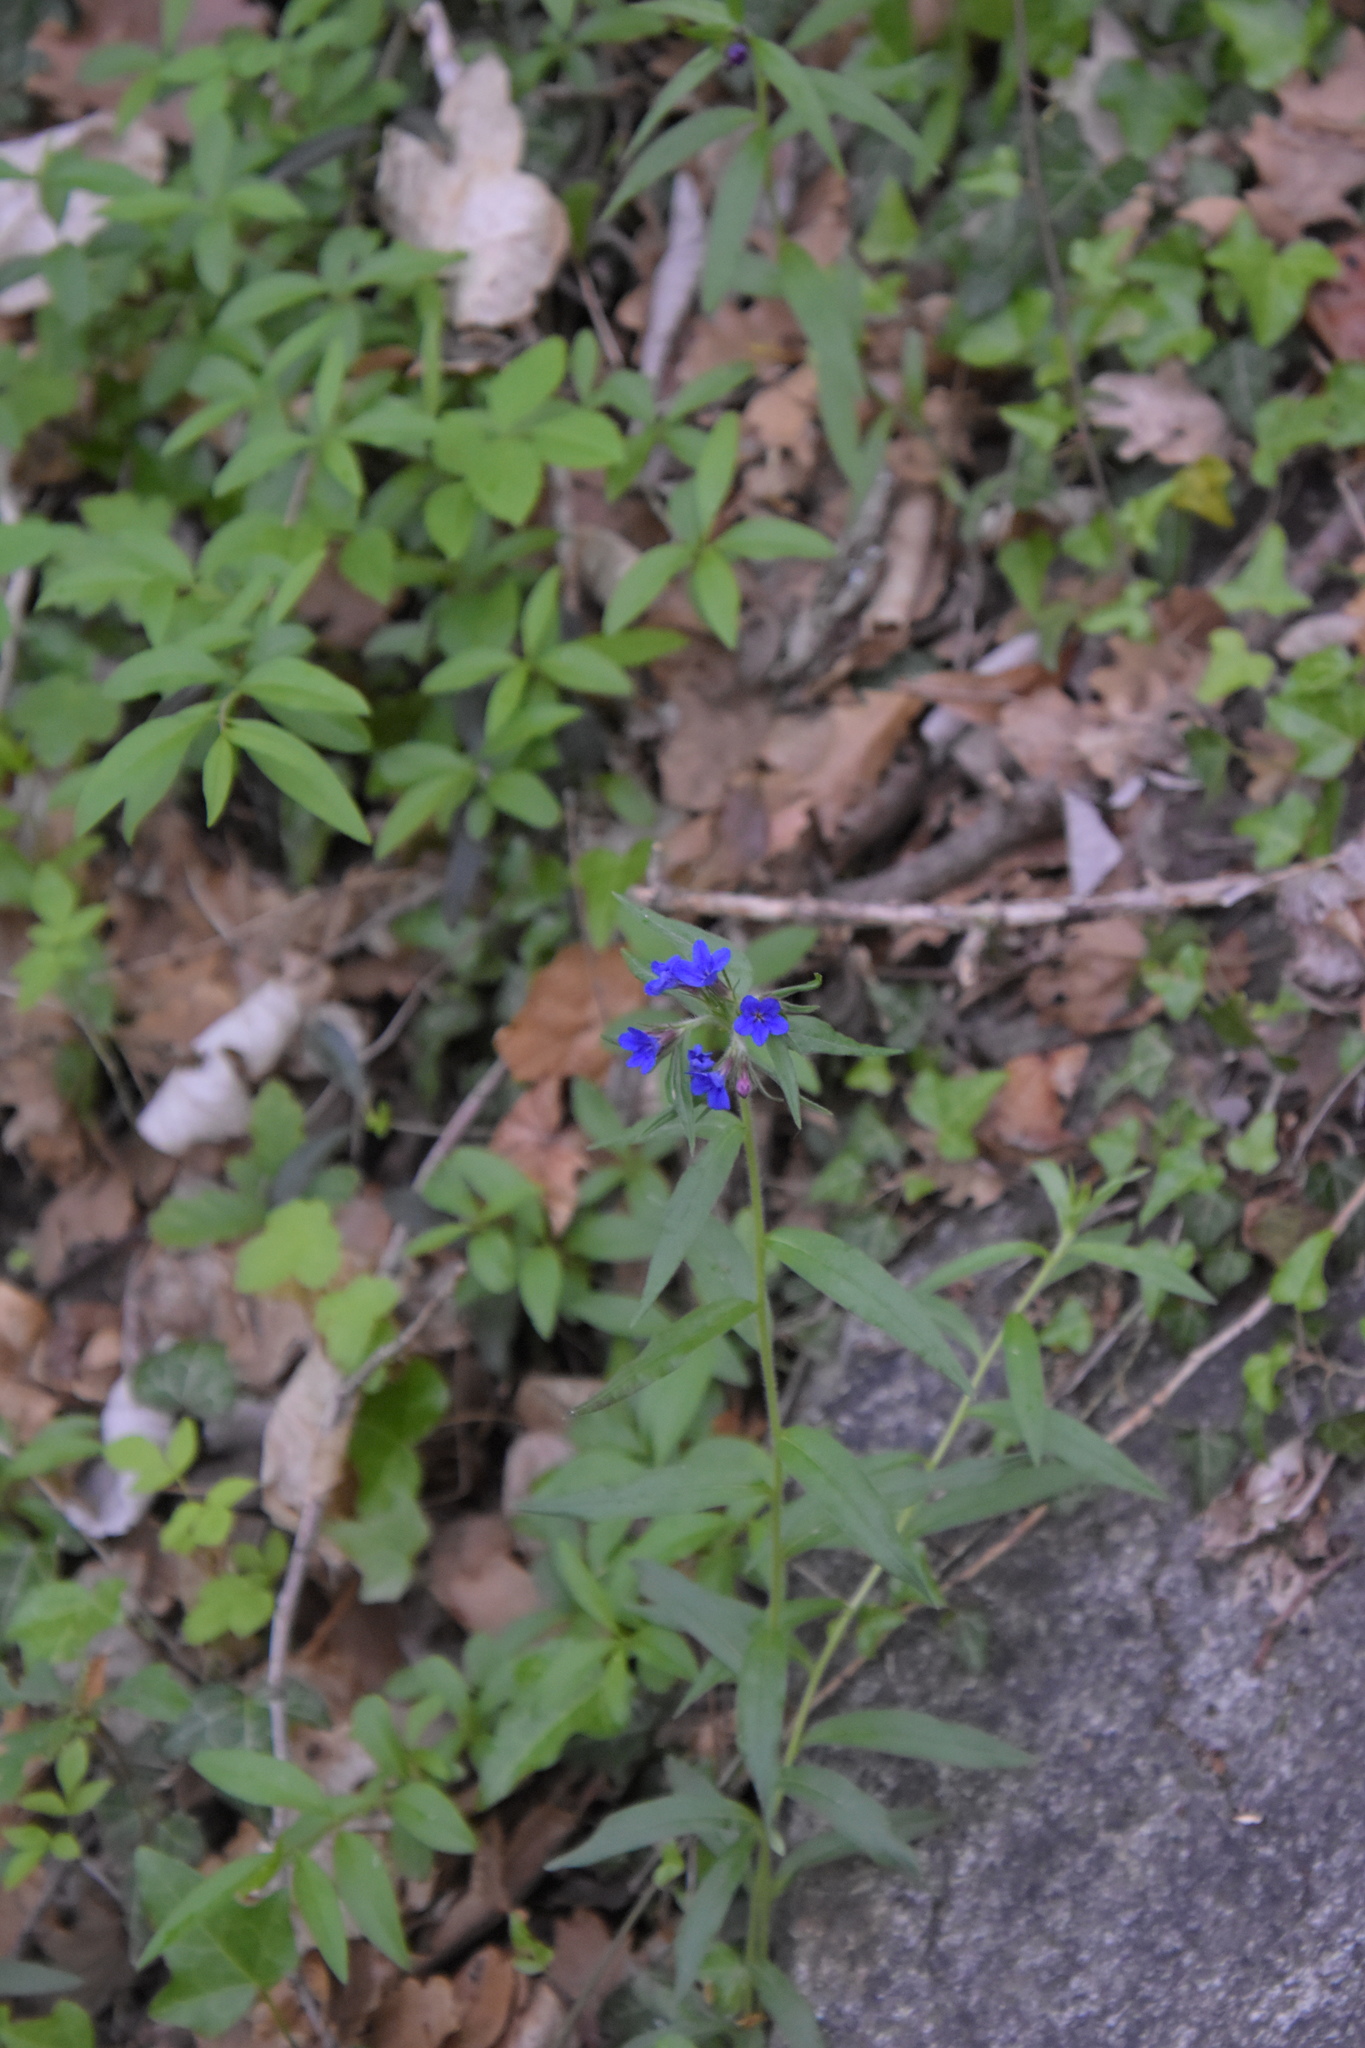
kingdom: Plantae
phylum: Tracheophyta
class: Magnoliopsida
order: Boraginales
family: Boraginaceae
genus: Aegonychon
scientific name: Aegonychon purpurocaeruleum
